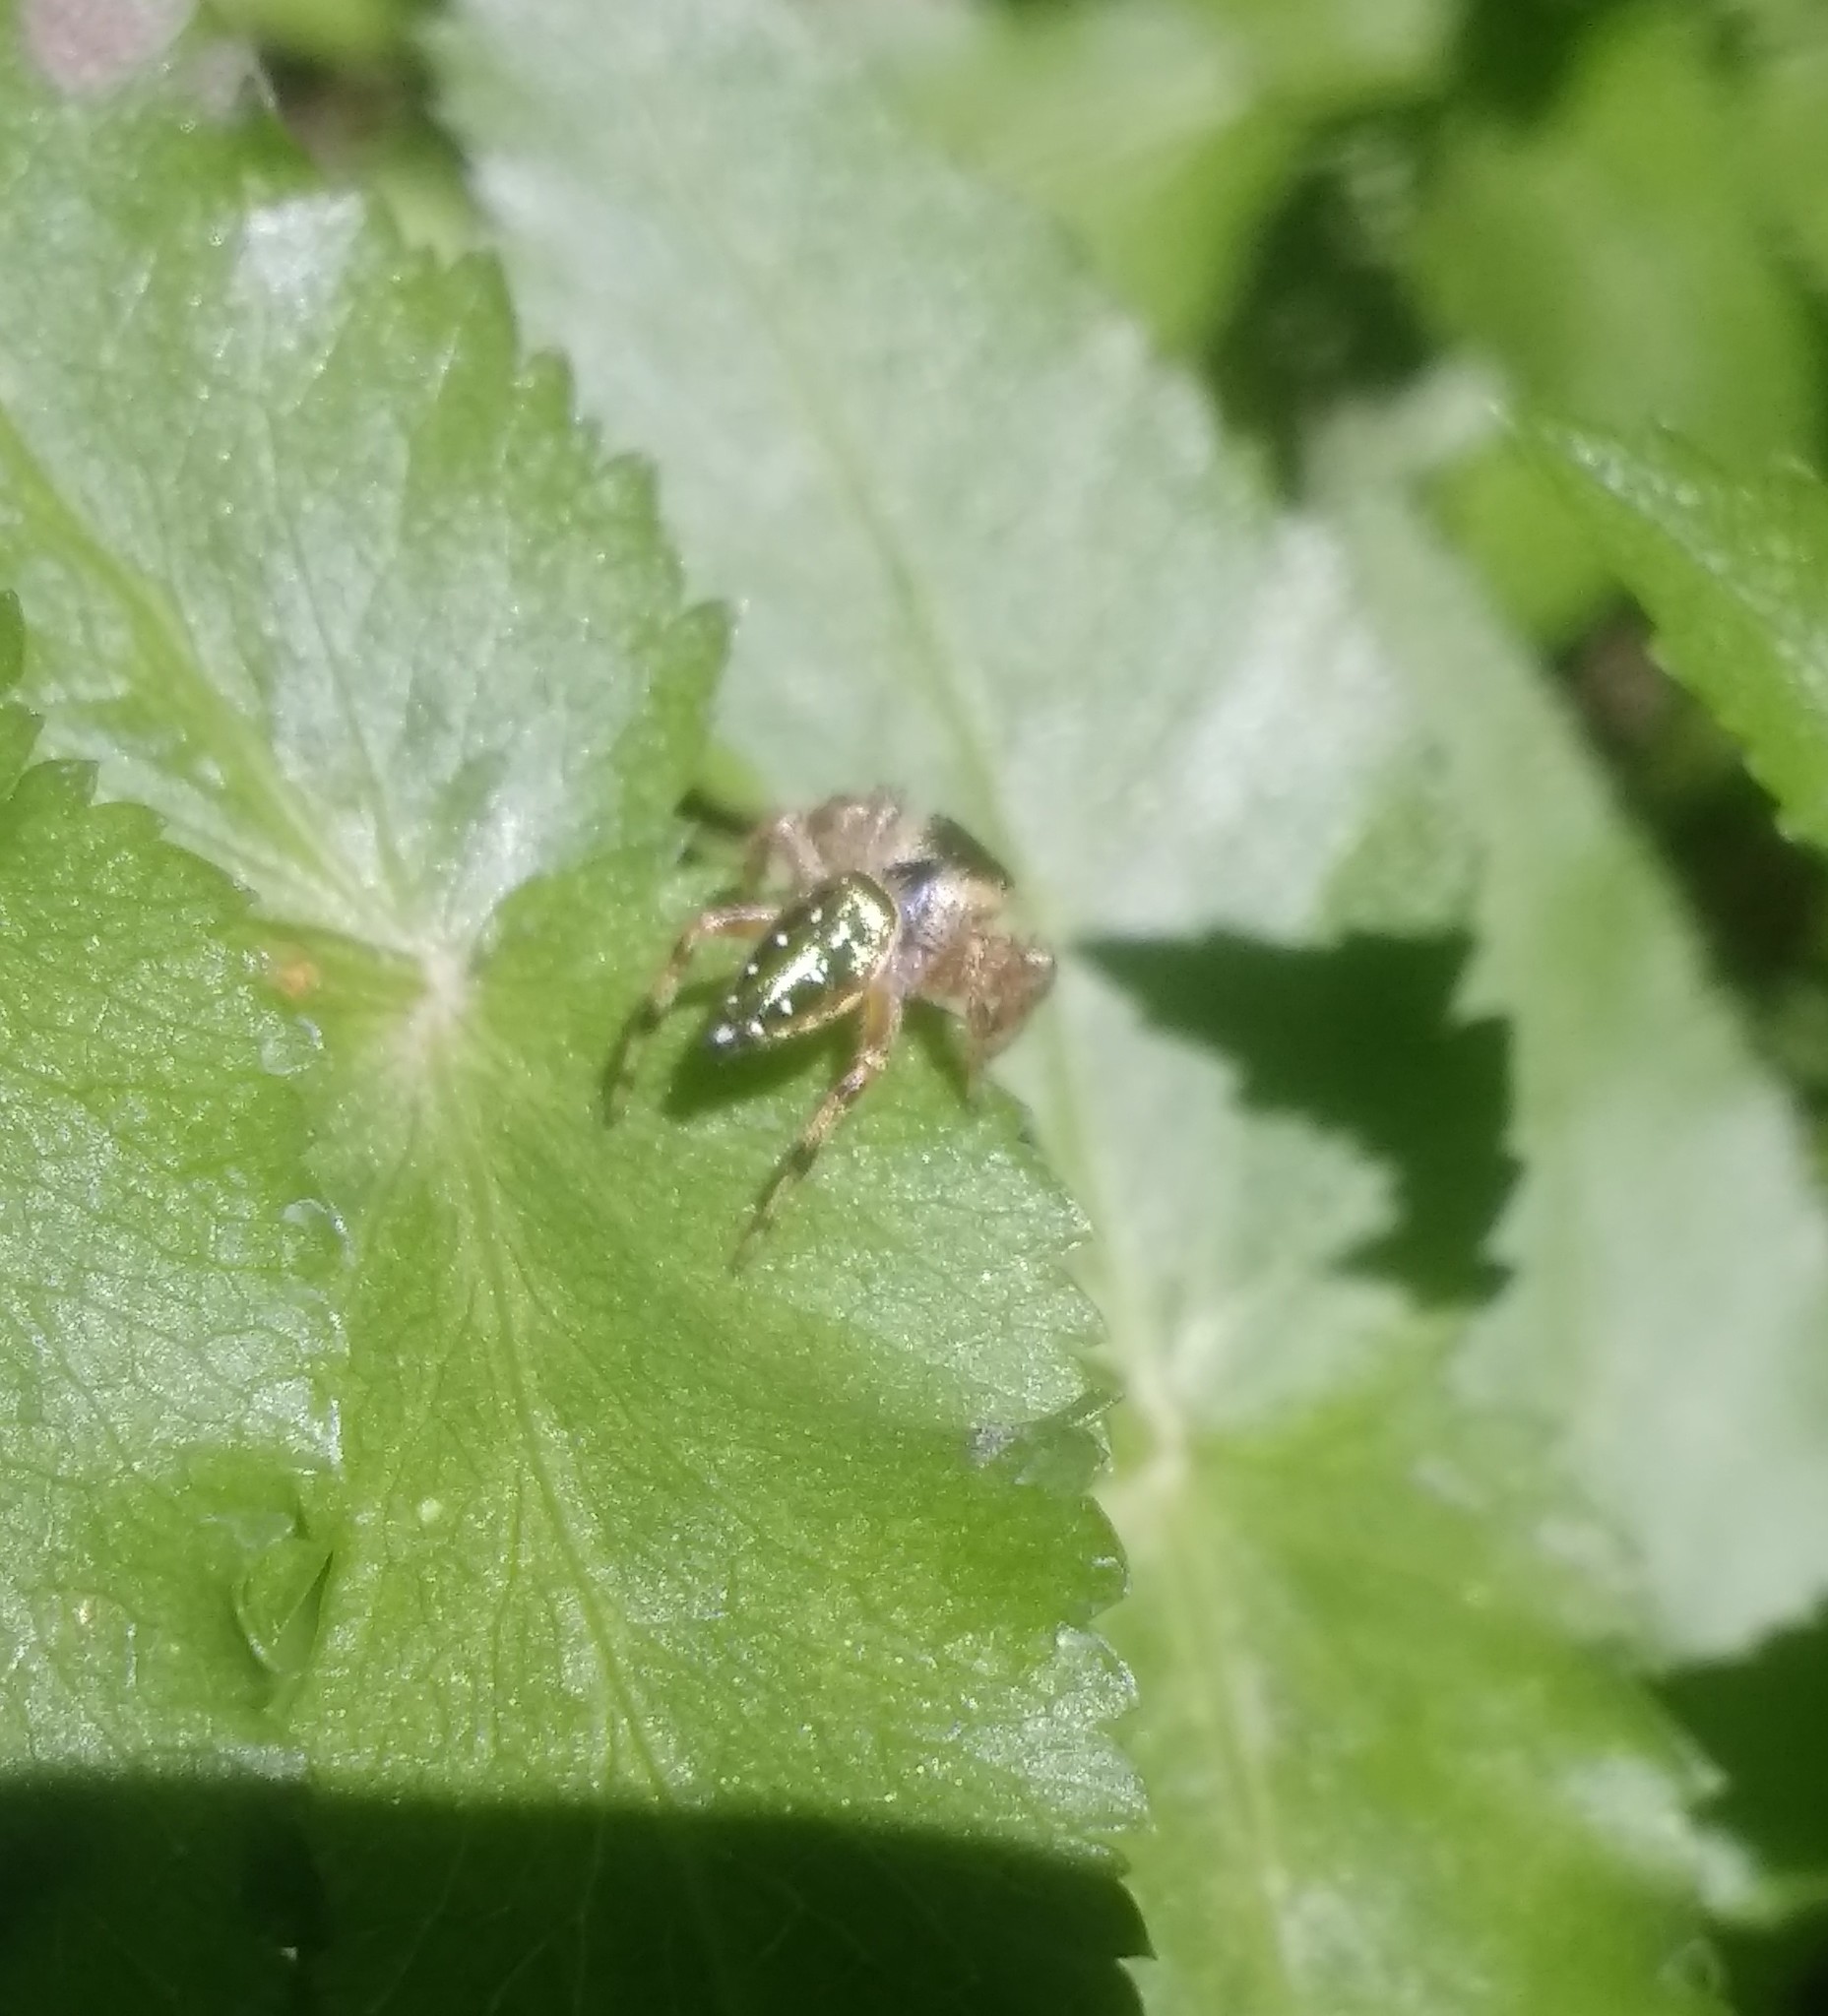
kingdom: Animalia
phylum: Arthropoda
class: Arachnida
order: Araneae
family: Salticidae
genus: Paraphidippus
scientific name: Paraphidippus aurantius
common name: Jumping spiders
